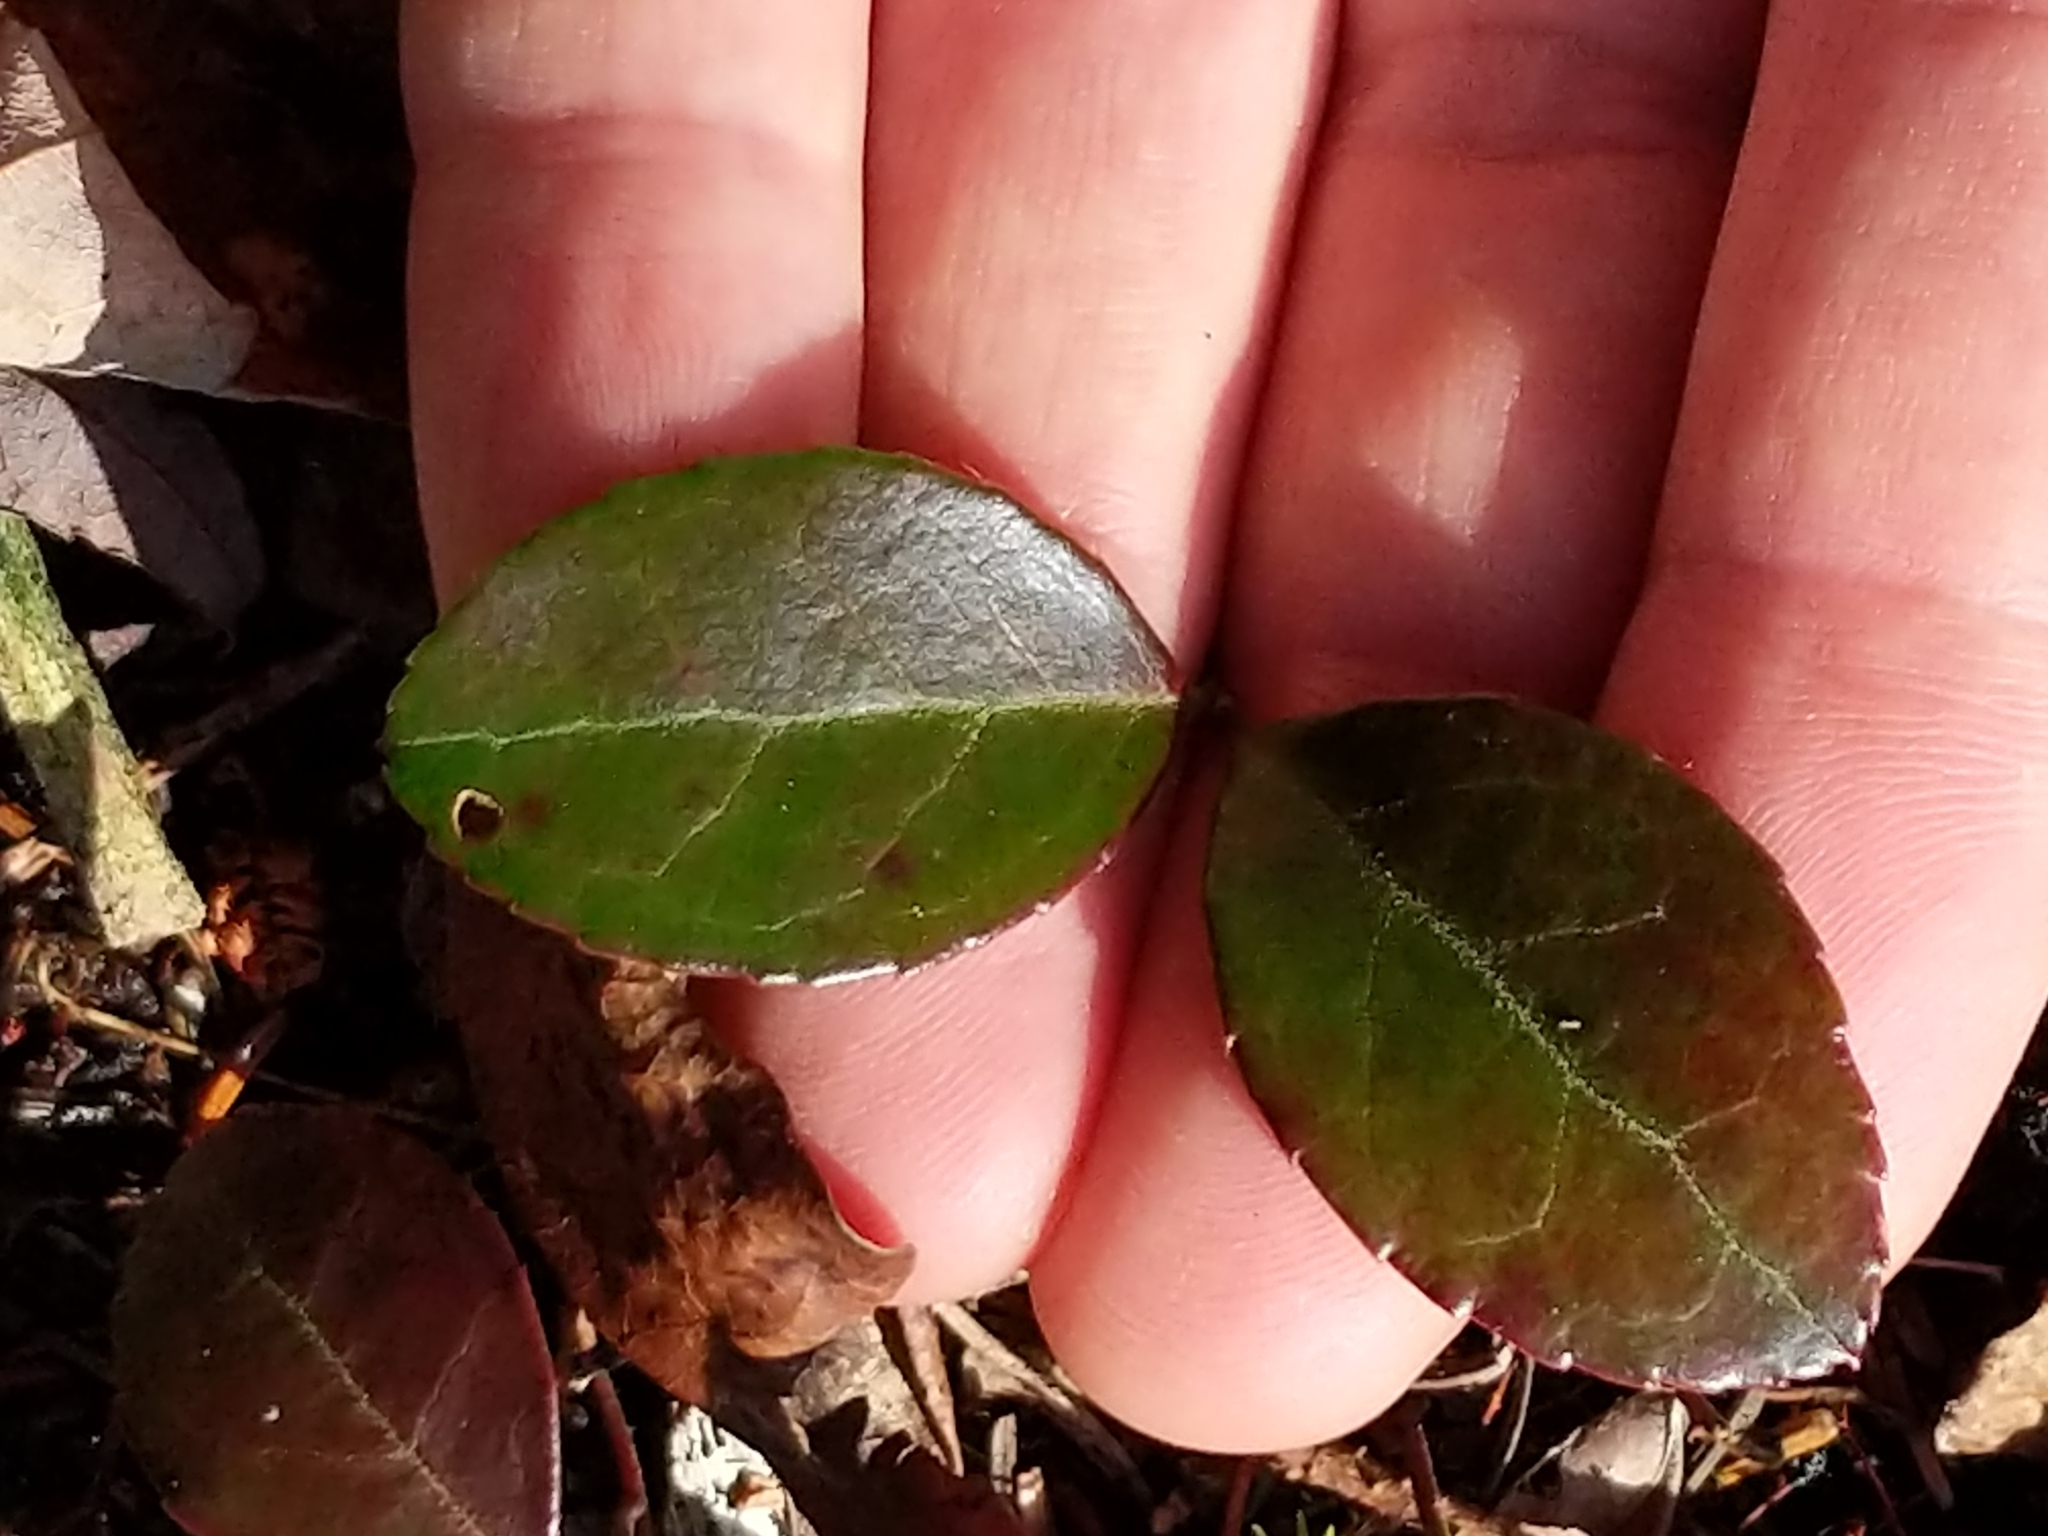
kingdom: Plantae
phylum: Tracheophyta
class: Magnoliopsida
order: Ericales
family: Ericaceae
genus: Gaultheria
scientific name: Gaultheria procumbens
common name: Checkerberry
